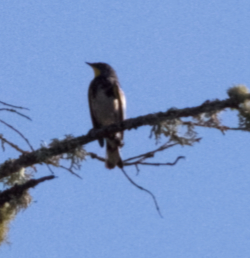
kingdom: Animalia
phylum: Chordata
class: Aves
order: Passeriformes
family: Parulidae
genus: Setophaga
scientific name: Setophaga coronata
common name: Myrtle warbler
